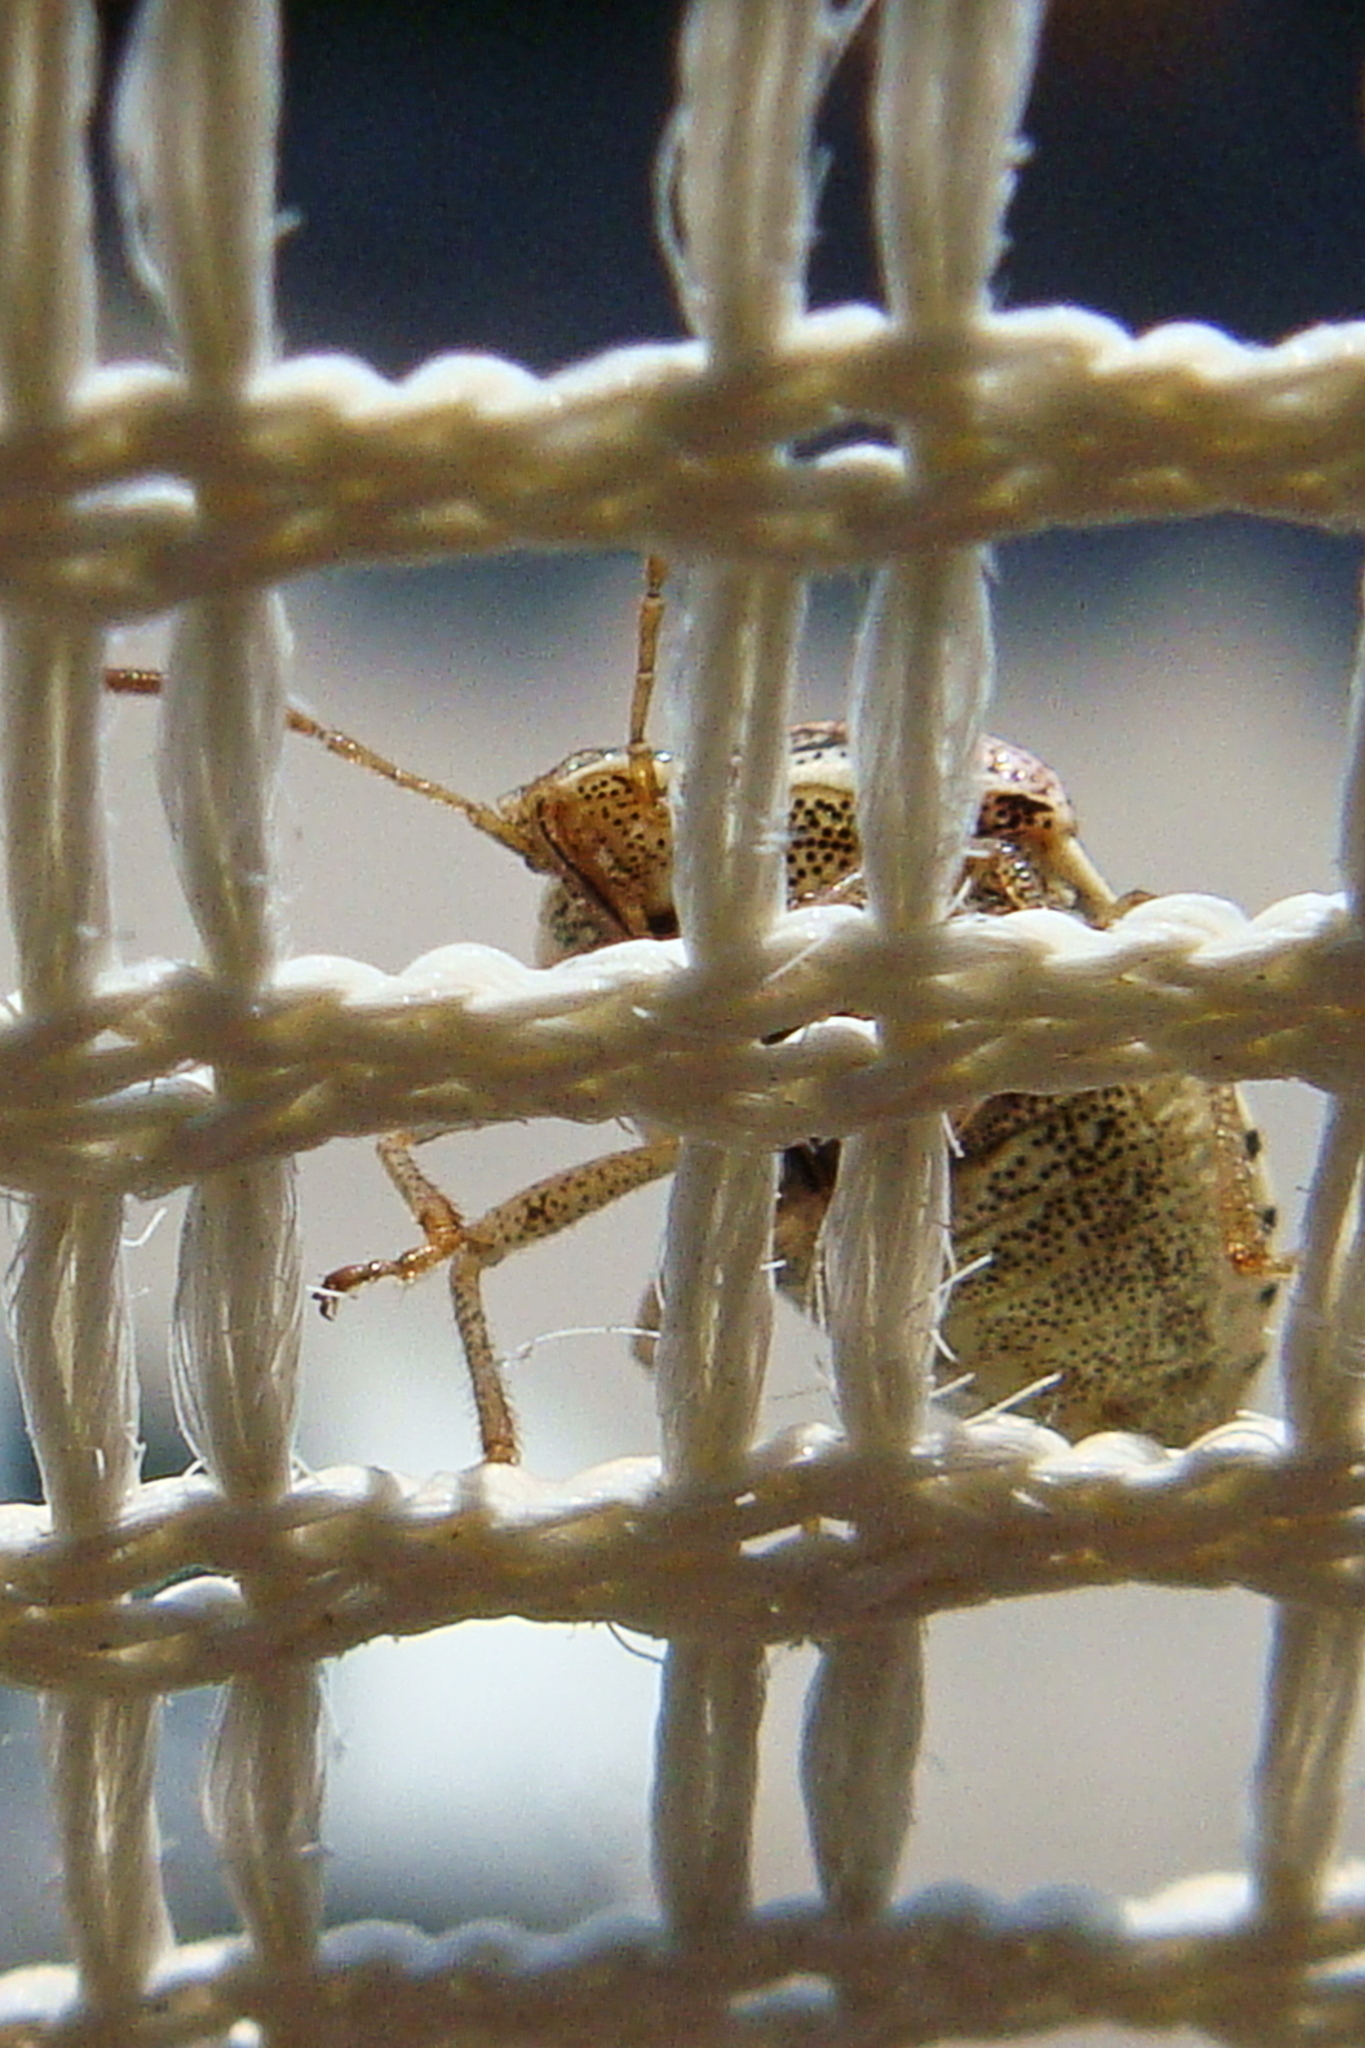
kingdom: Animalia
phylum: Arthropoda
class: Insecta
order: Hemiptera
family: Pentatomidae
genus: Stagonomus
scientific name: Stagonomus
